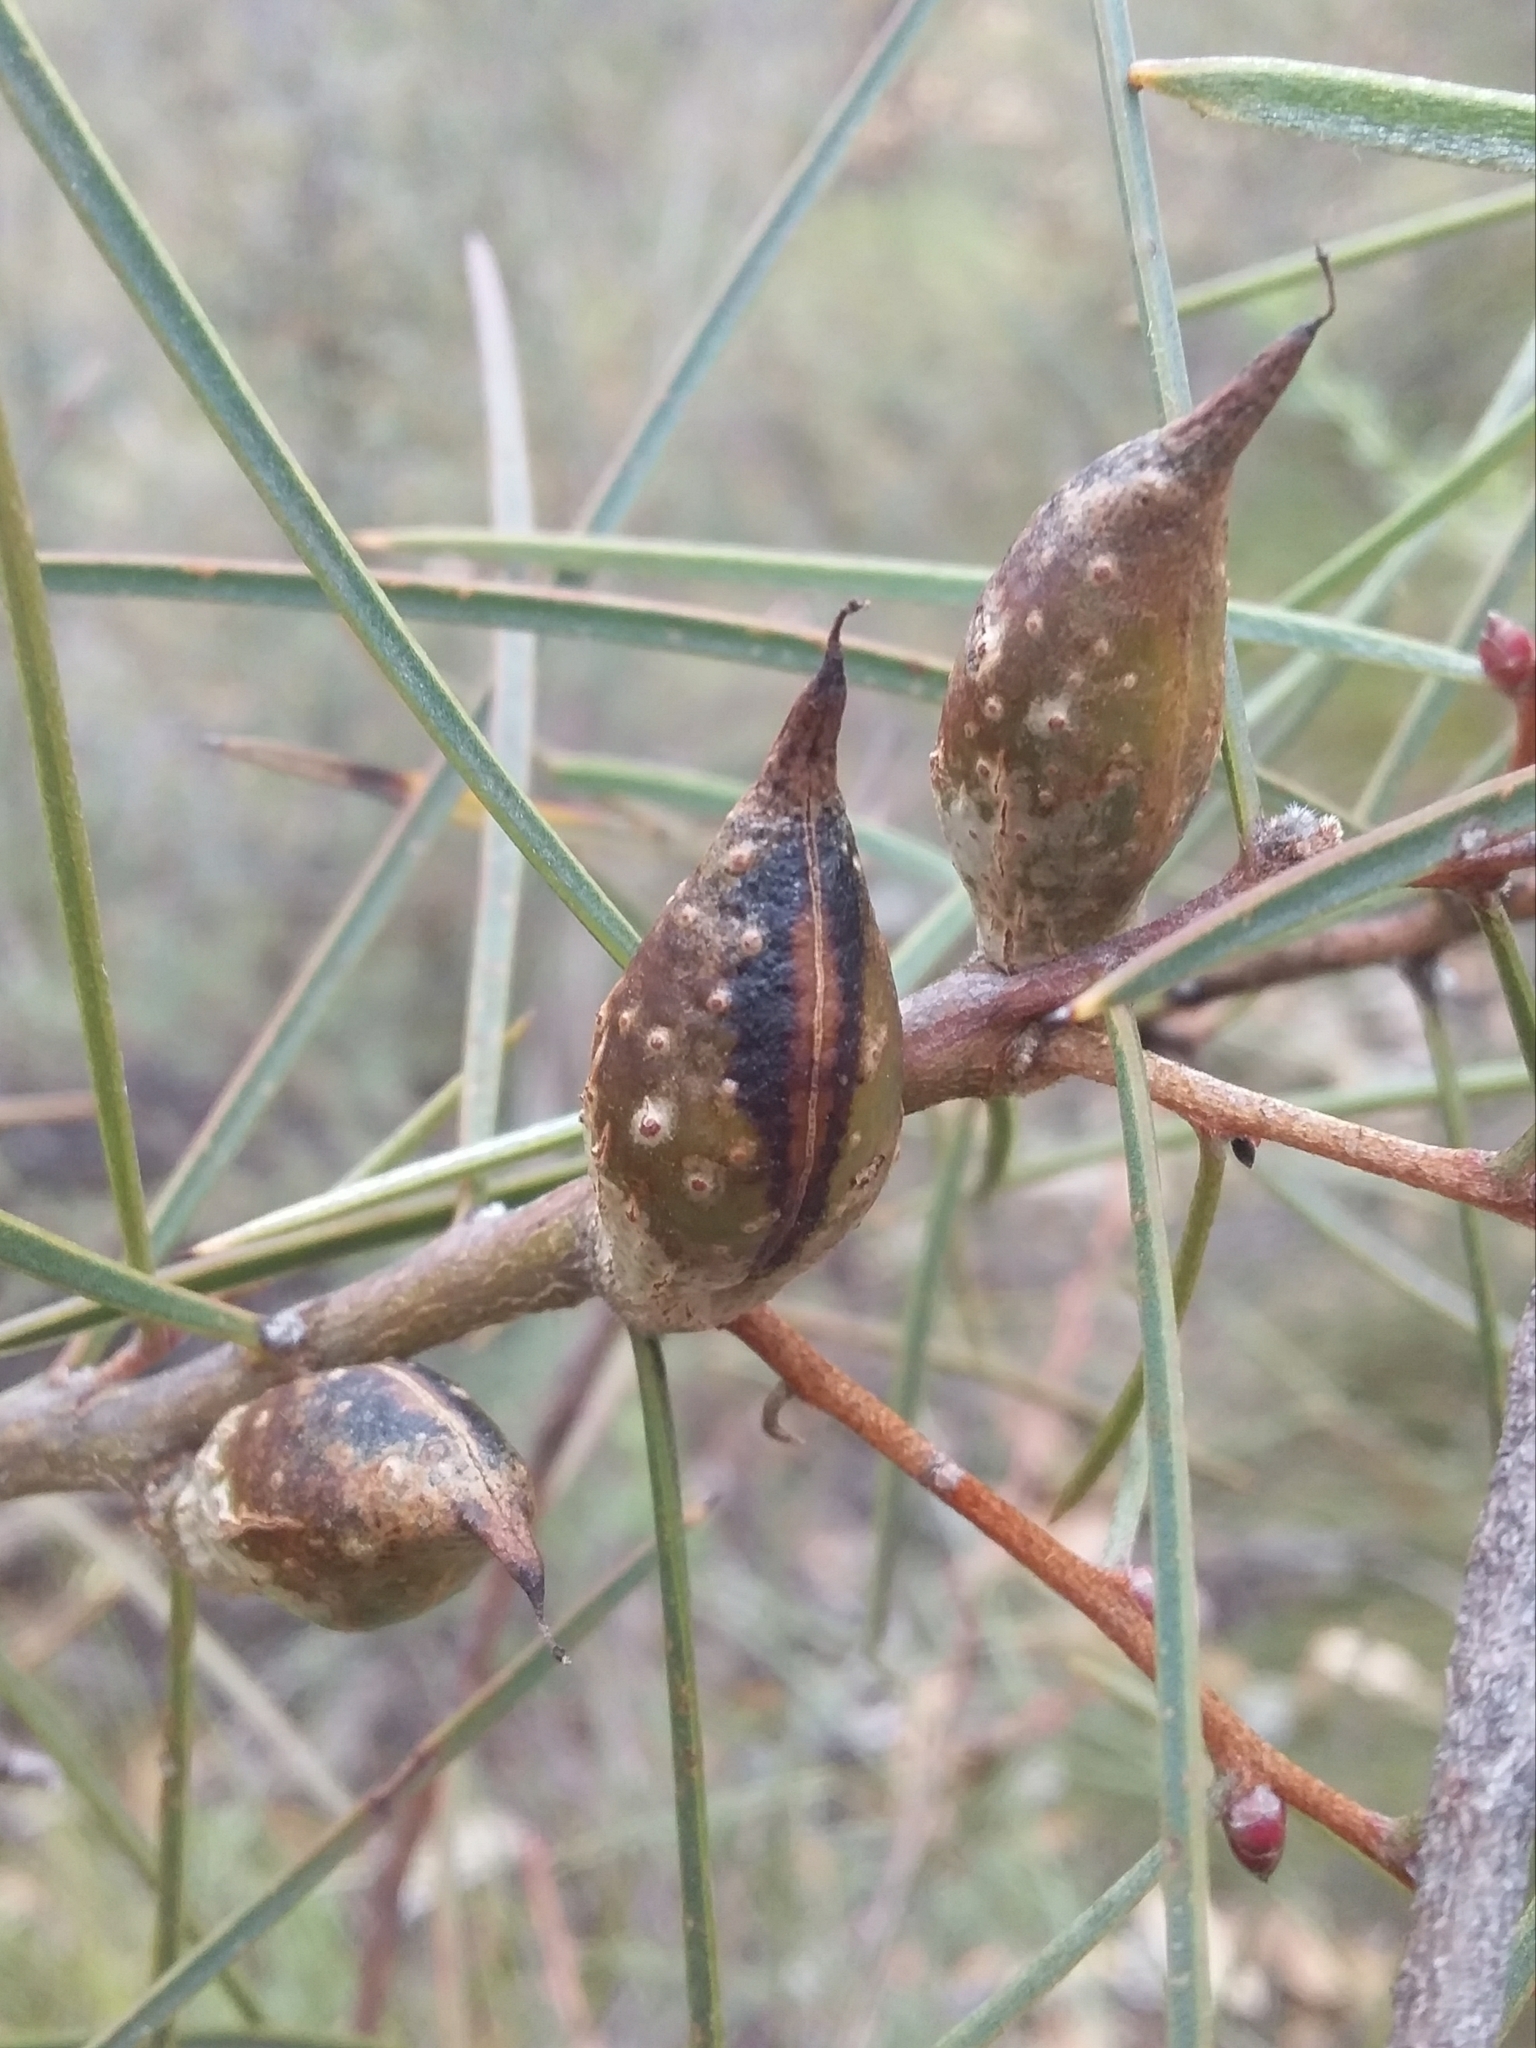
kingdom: Plantae
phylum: Tracheophyta
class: Magnoliopsida
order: Proteales
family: Proteaceae
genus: Hakea
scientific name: Hakea carinata
